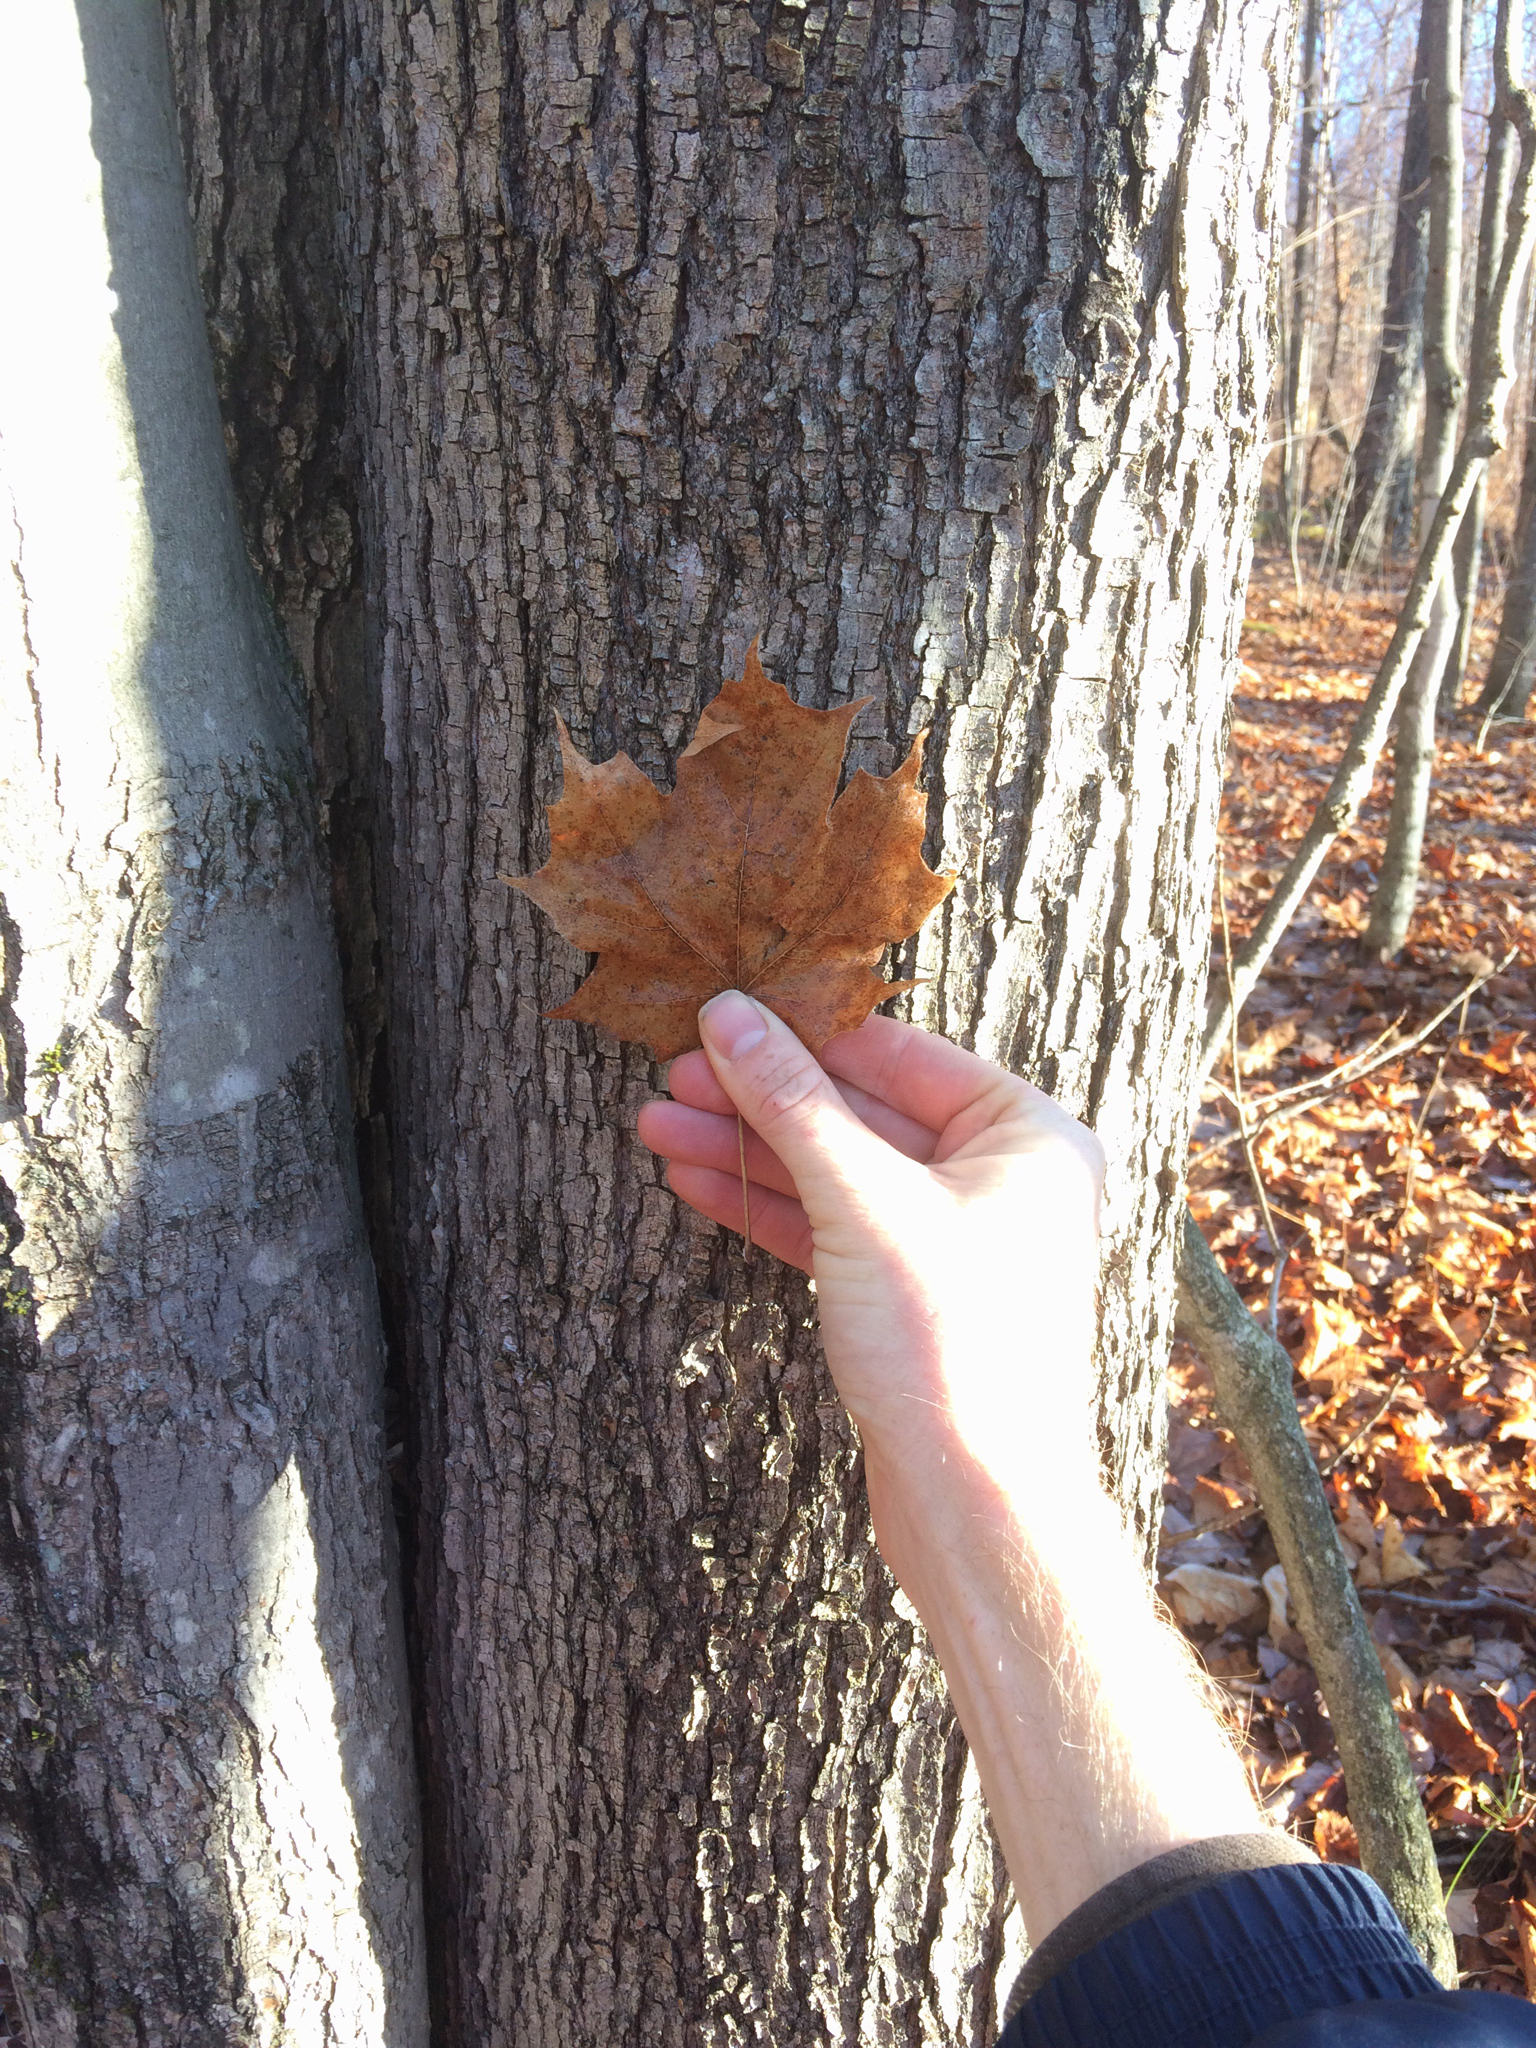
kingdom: Plantae
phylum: Tracheophyta
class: Magnoliopsida
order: Sapindales
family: Sapindaceae
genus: Acer
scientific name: Acer saccharum
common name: Sugar maple
